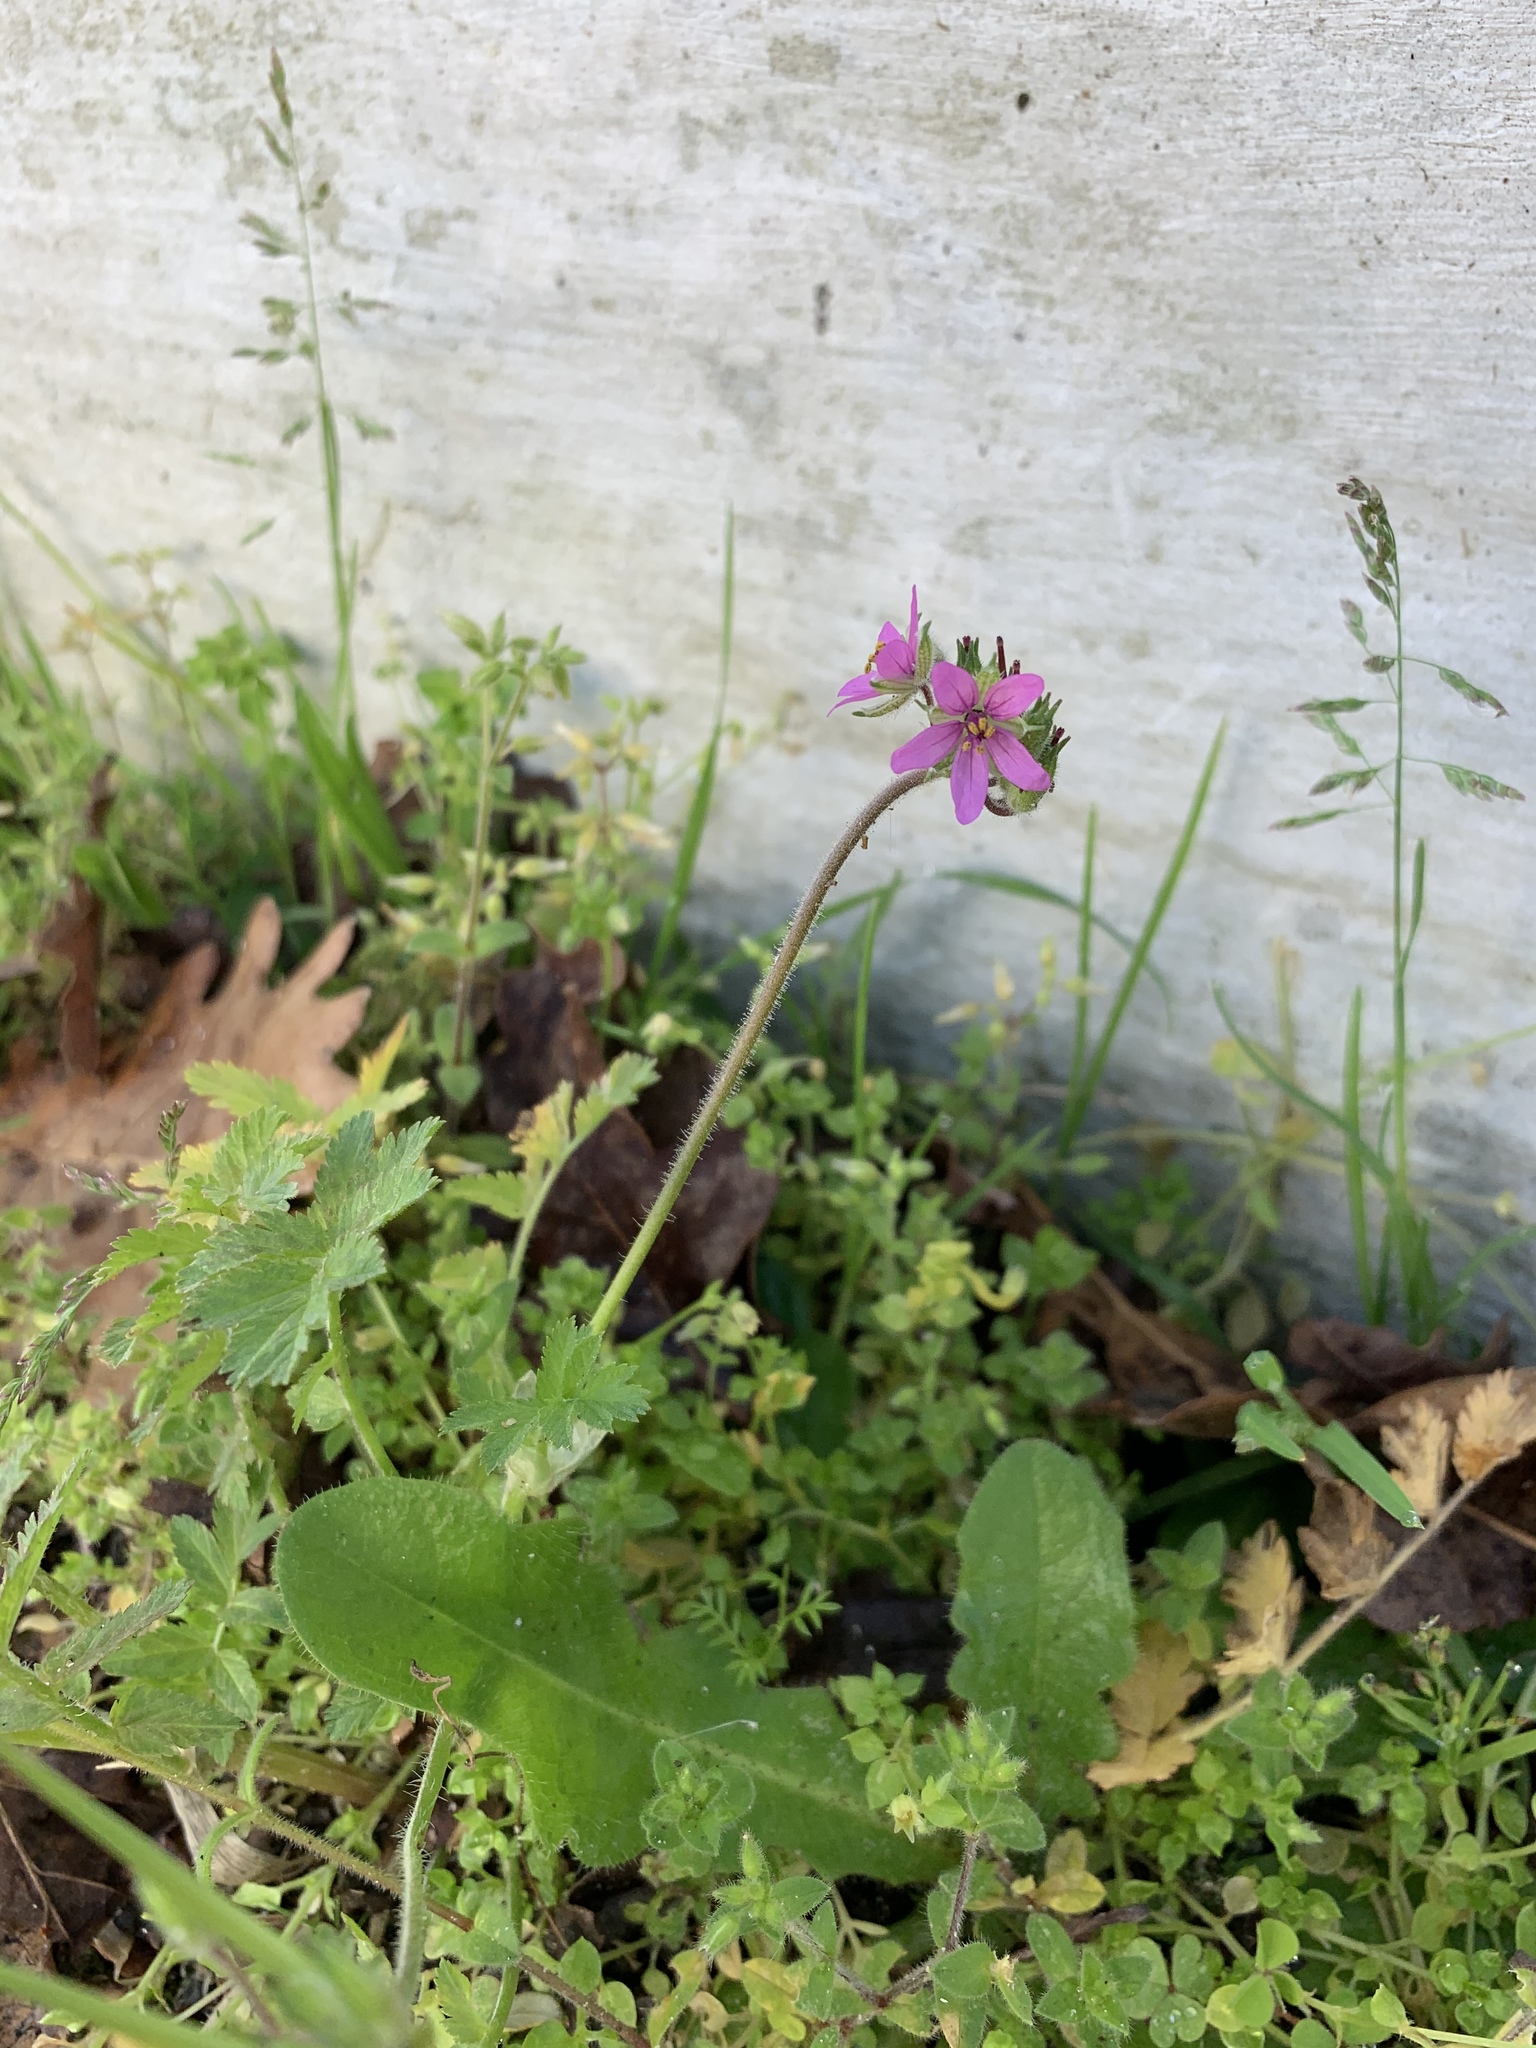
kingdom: Plantae
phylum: Tracheophyta
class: Magnoliopsida
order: Geraniales
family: Geraniaceae
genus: Erodium
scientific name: Erodium moschatum
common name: Musk stork's-bill
